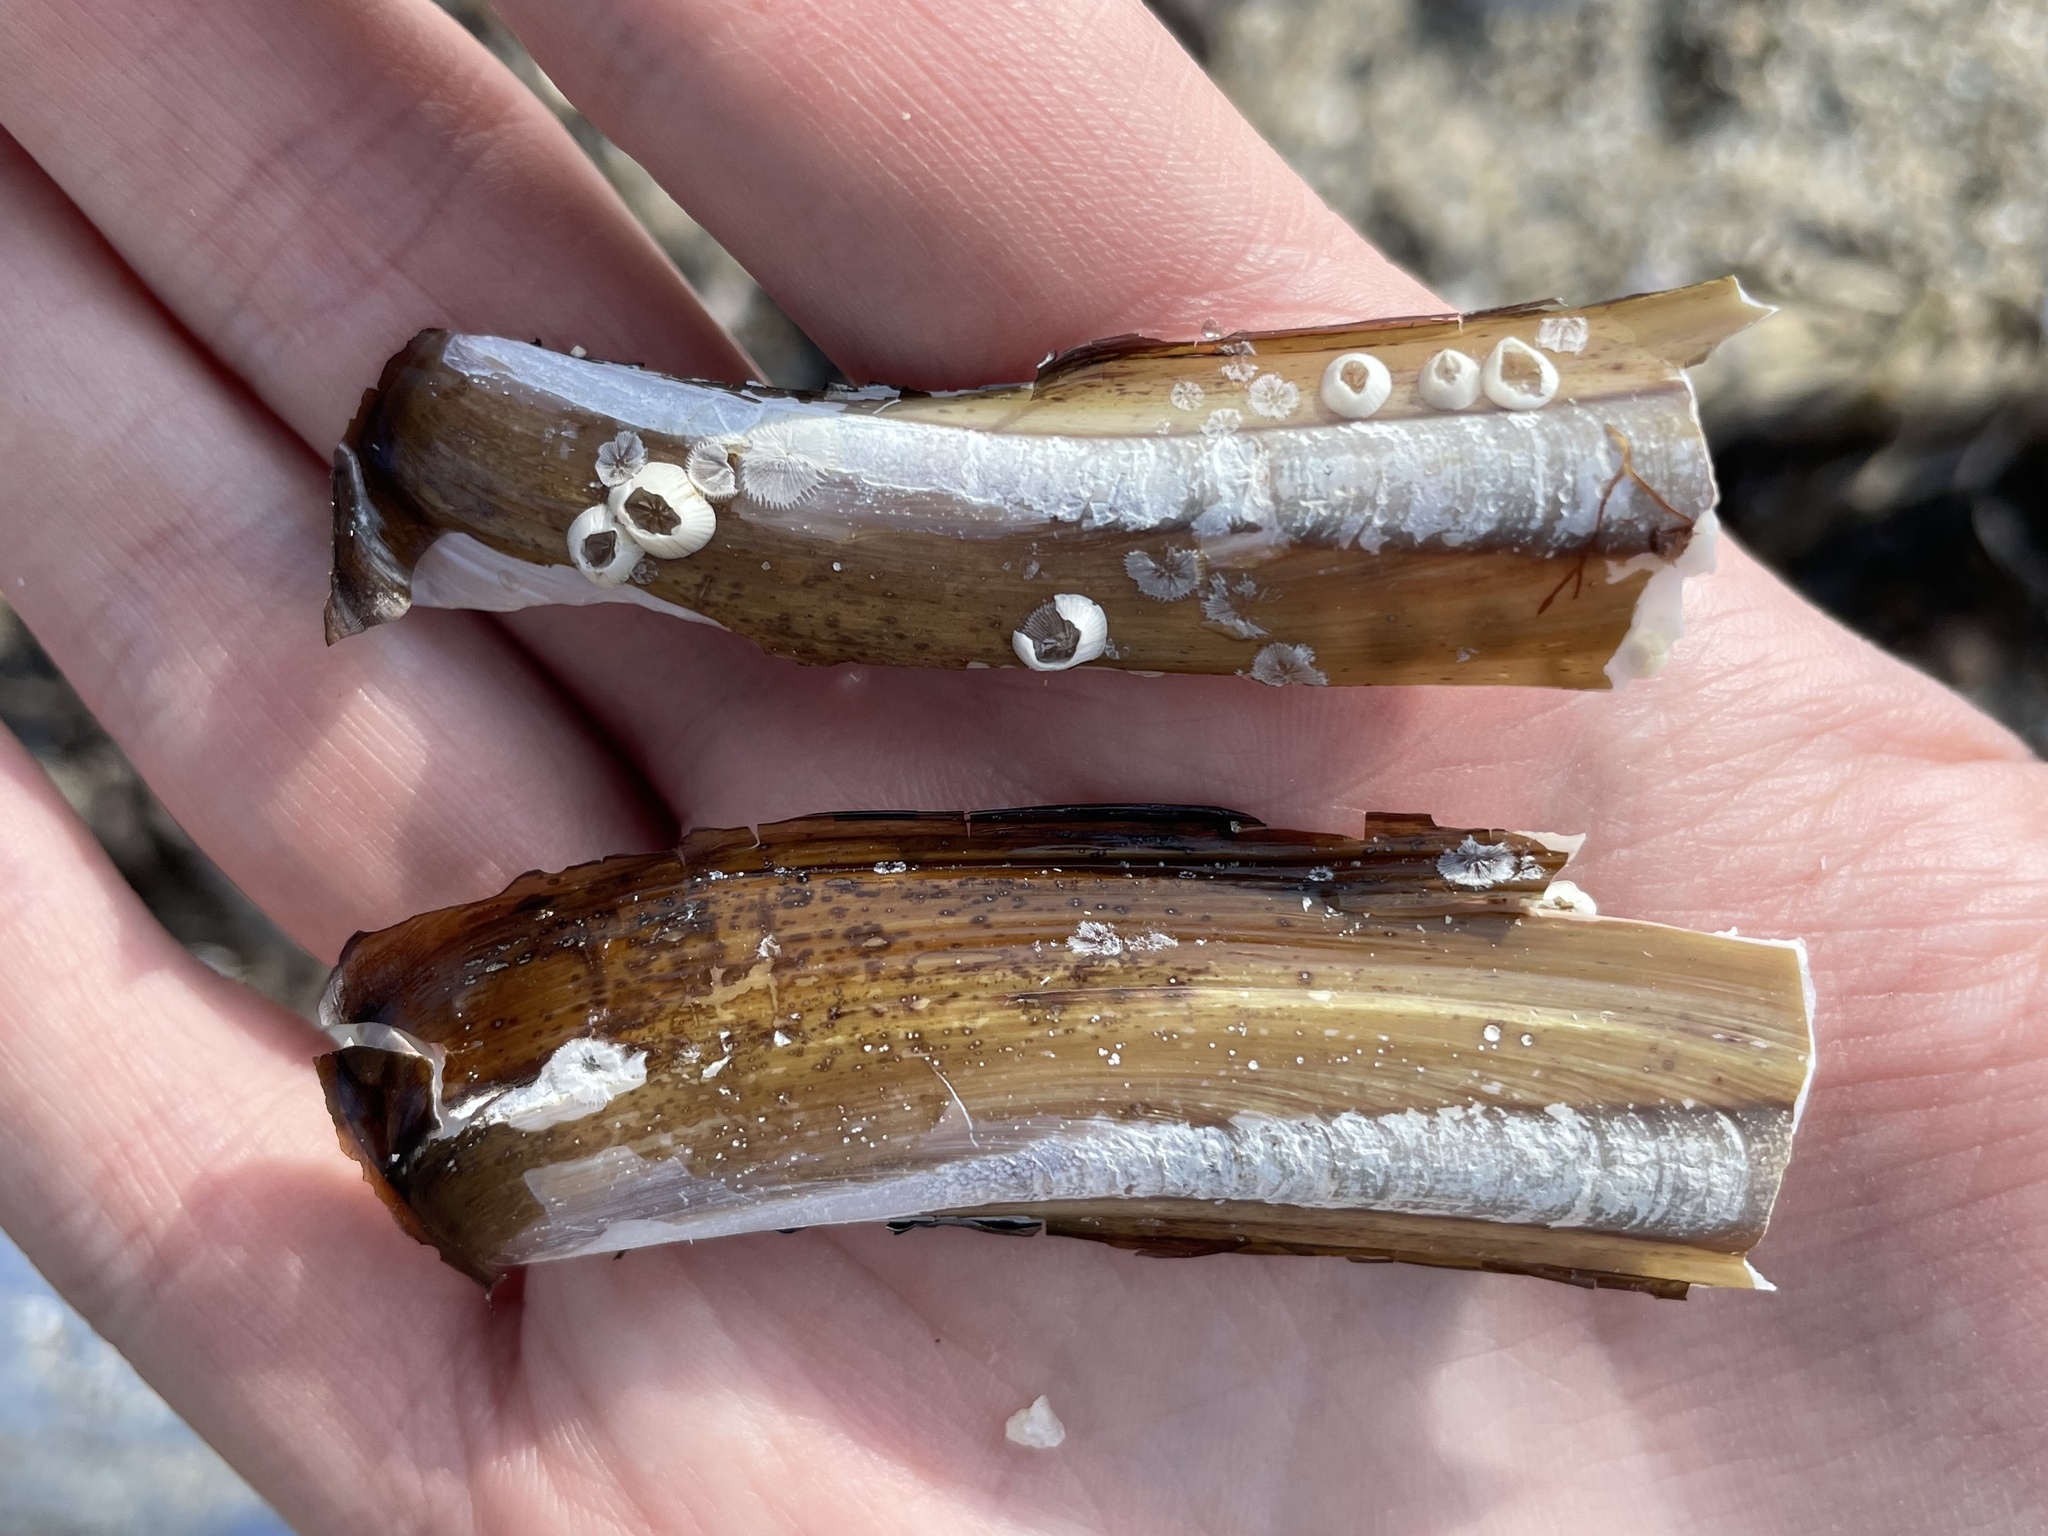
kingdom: Animalia
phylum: Mollusca
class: Bivalvia
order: Adapedonta
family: Pharidae
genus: Ensis
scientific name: Ensis leei
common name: American jack knife clam
